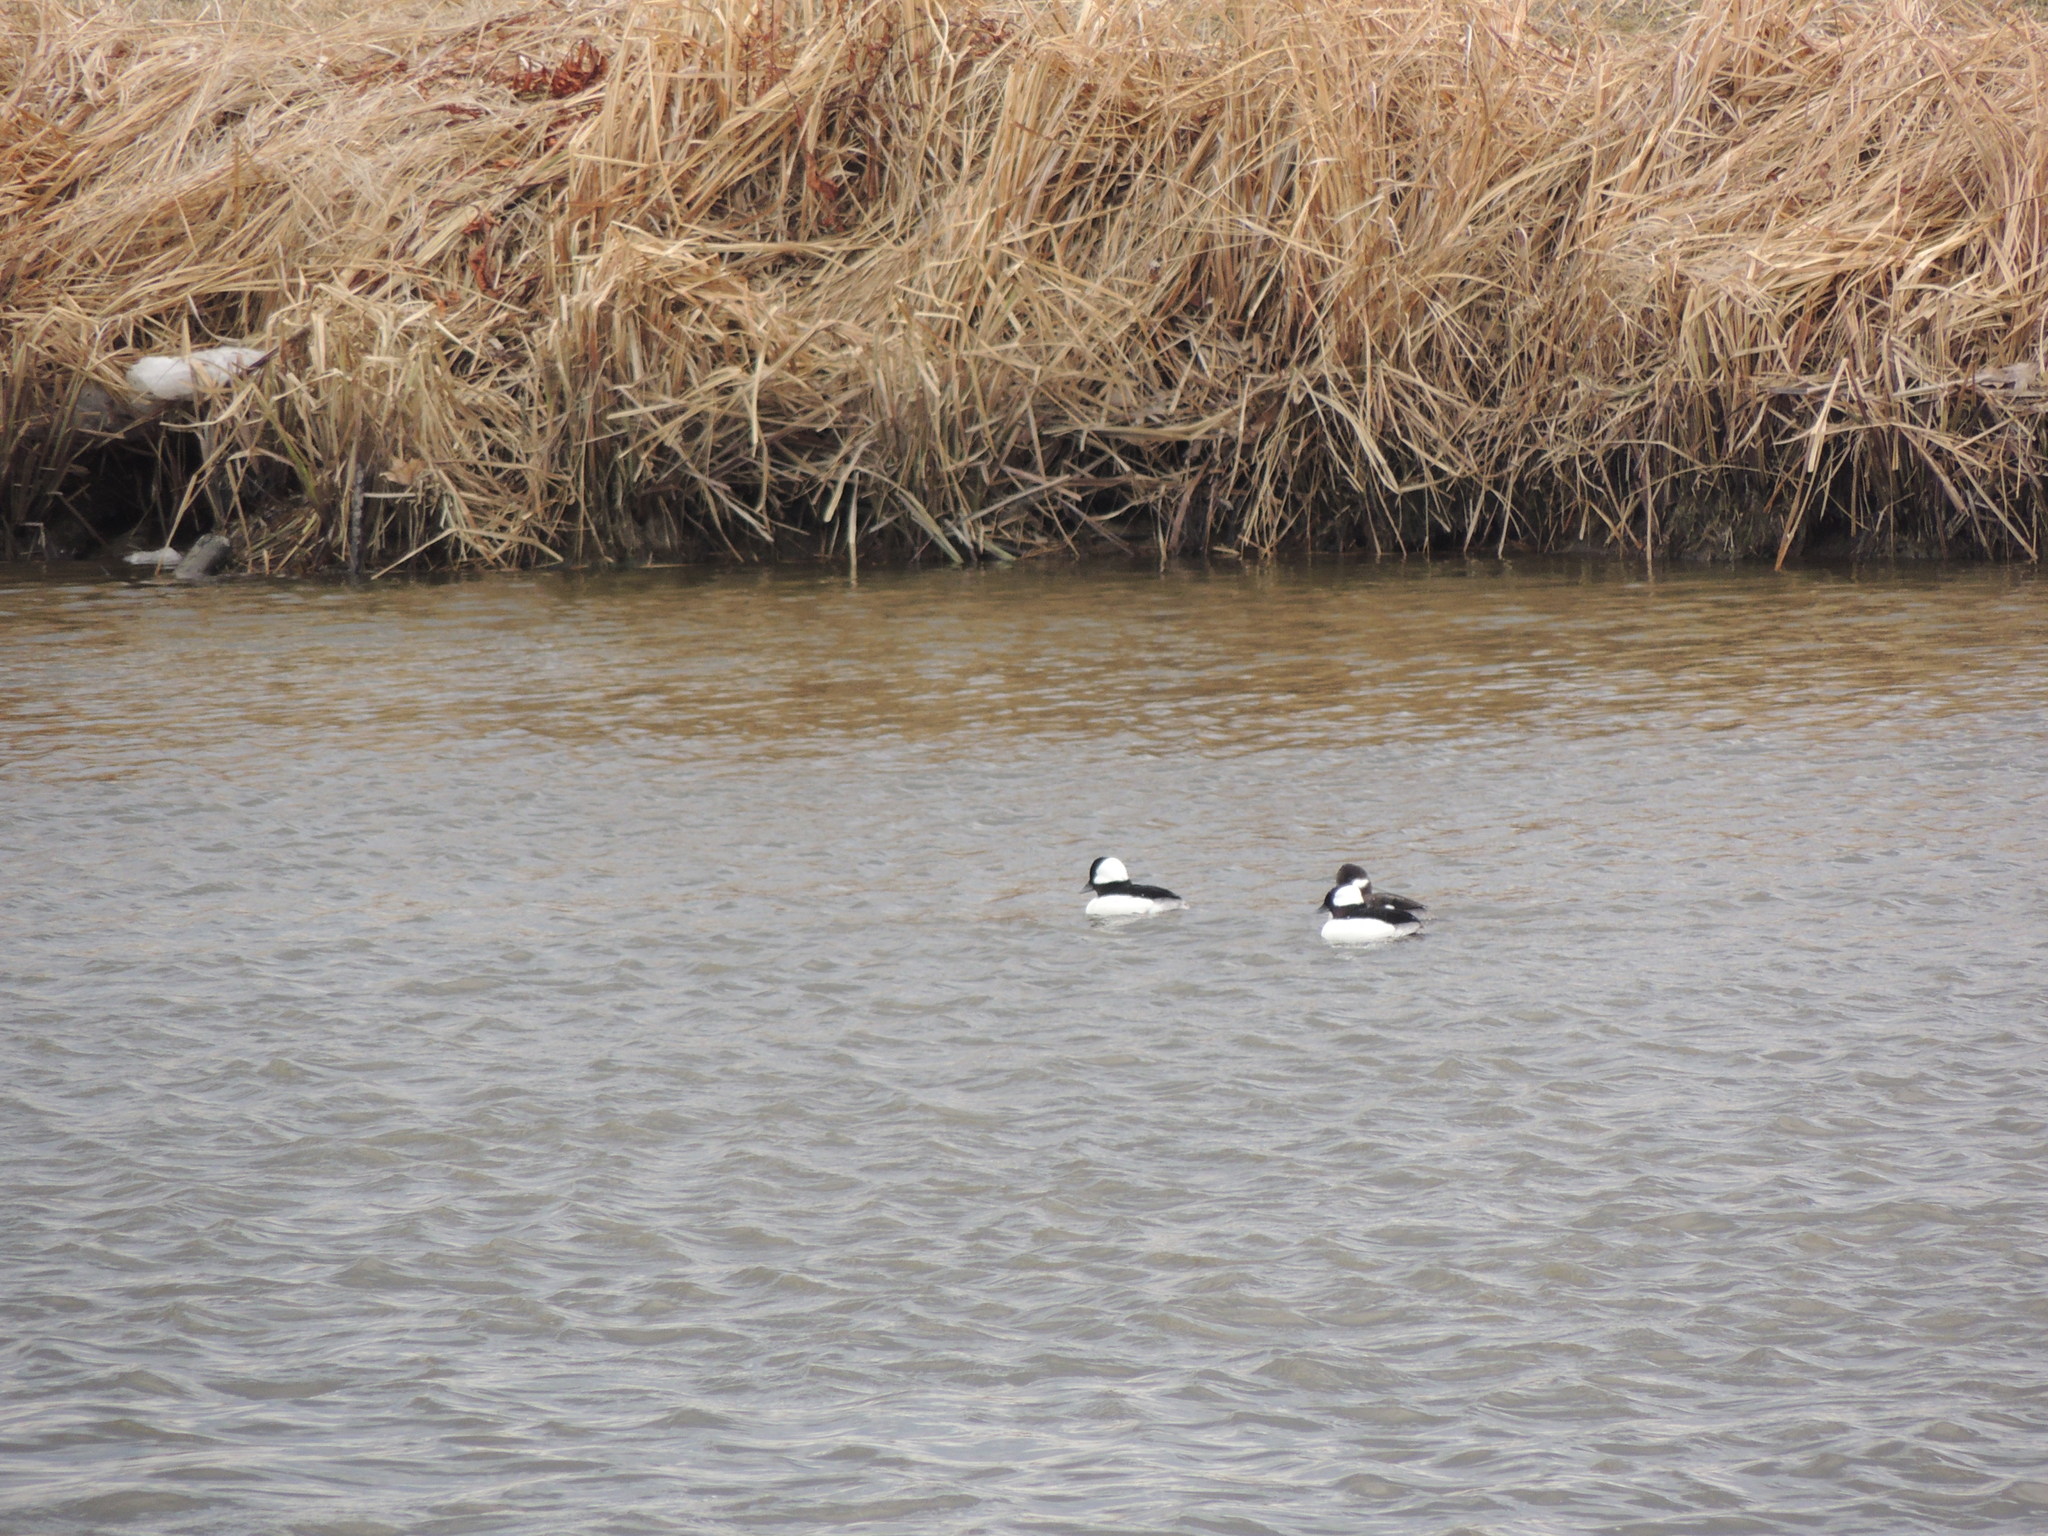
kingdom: Animalia
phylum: Chordata
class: Aves
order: Anseriformes
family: Anatidae
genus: Bucephala
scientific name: Bucephala albeola
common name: Bufflehead
